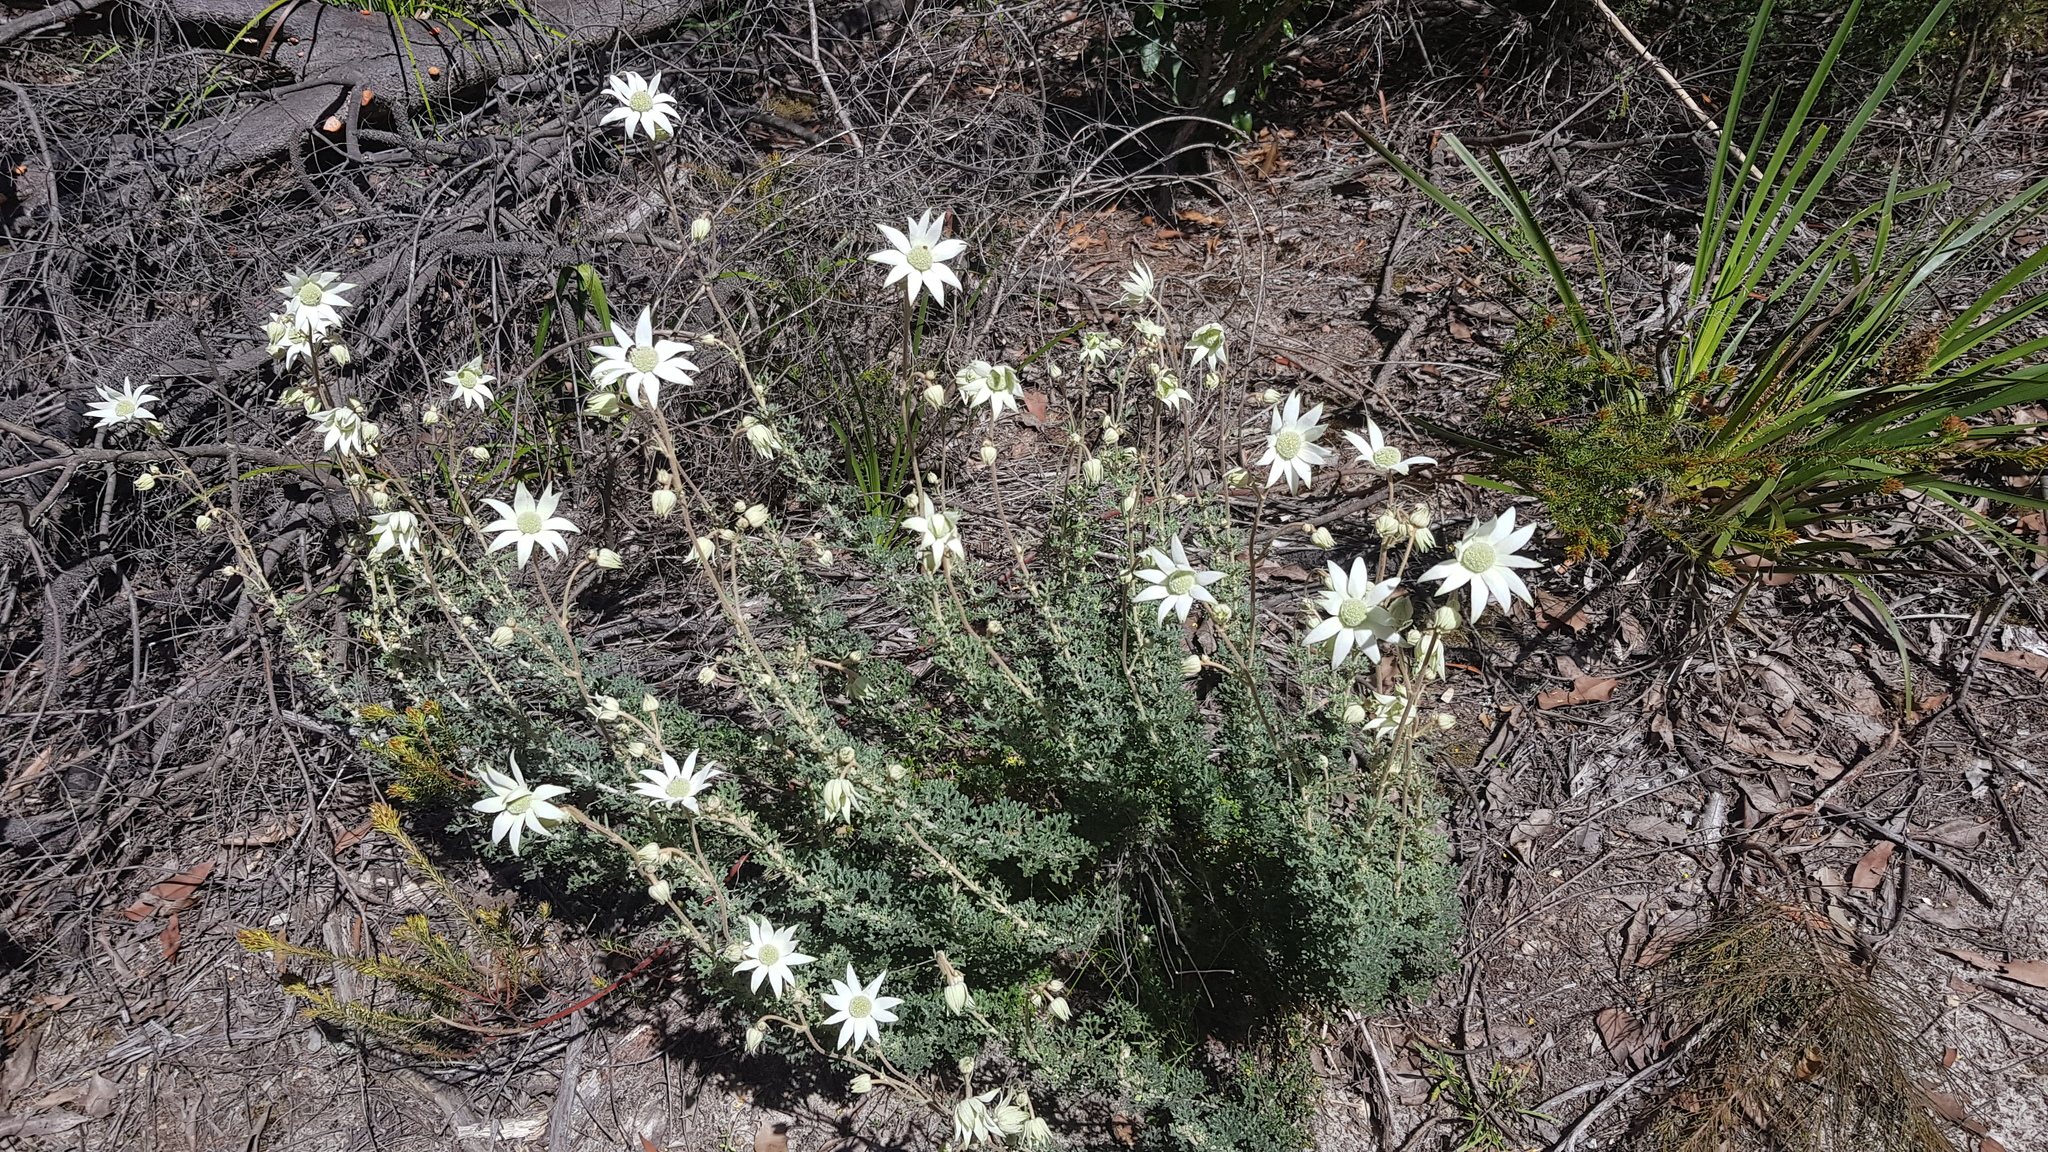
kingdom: Plantae
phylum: Tracheophyta
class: Magnoliopsida
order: Apiales
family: Apiaceae
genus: Actinotus
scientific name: Actinotus helianthi
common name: Flannel-flower
